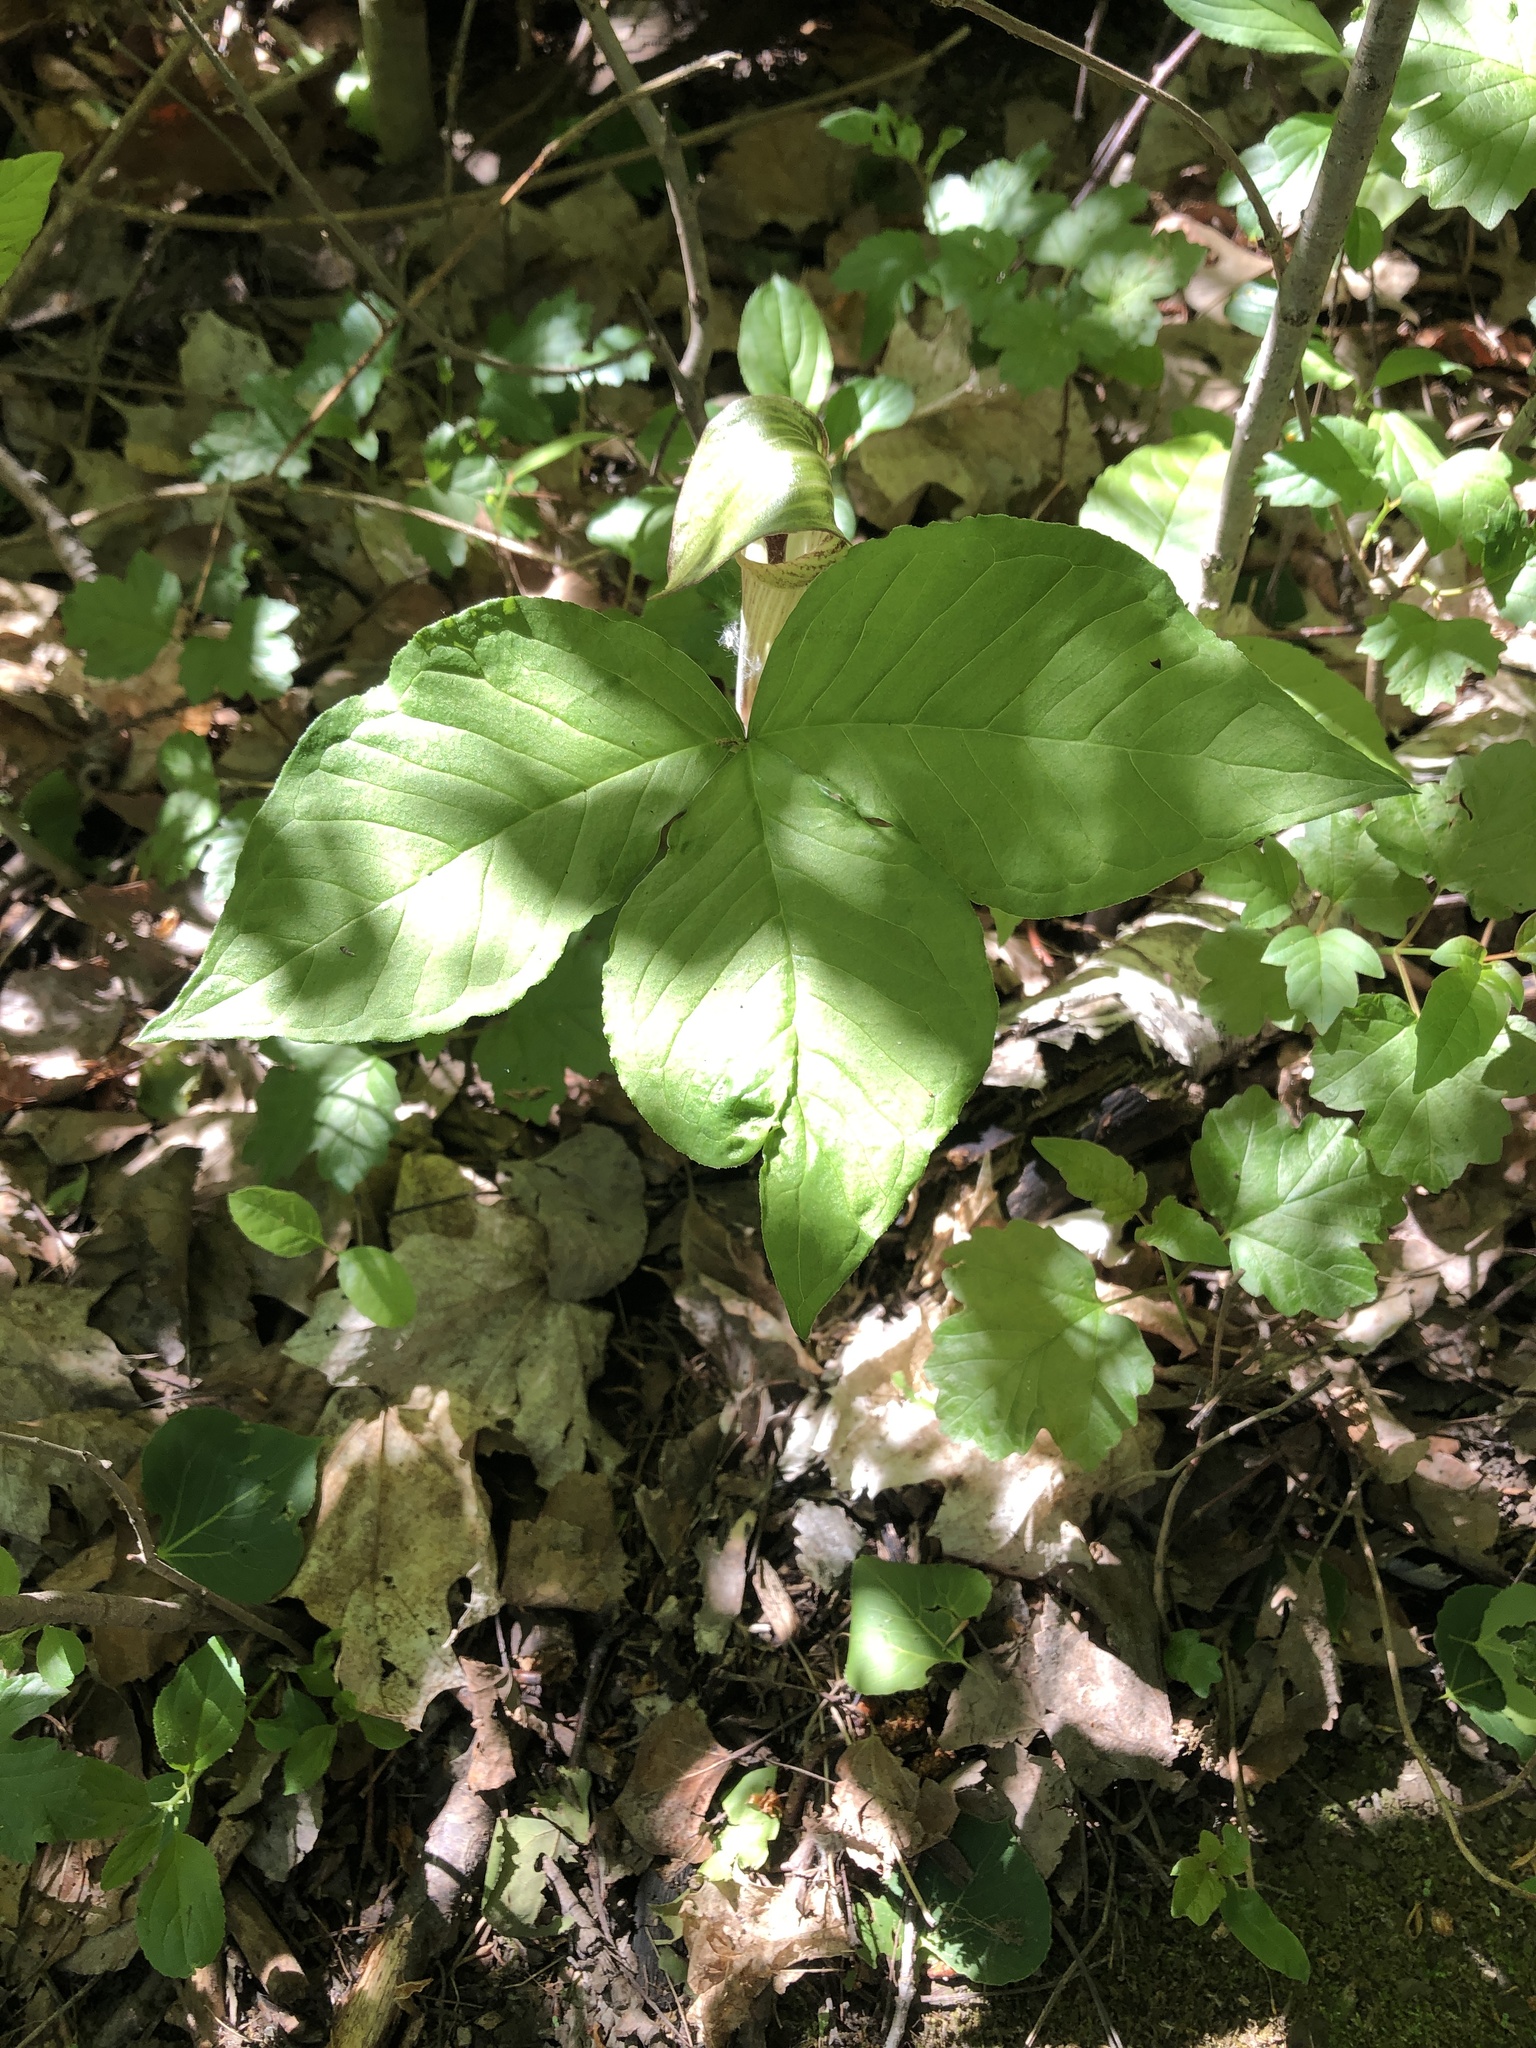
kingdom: Plantae
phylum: Tracheophyta
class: Liliopsida
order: Alismatales
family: Araceae
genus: Arisaema
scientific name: Arisaema triphyllum
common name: Jack-in-the-pulpit
